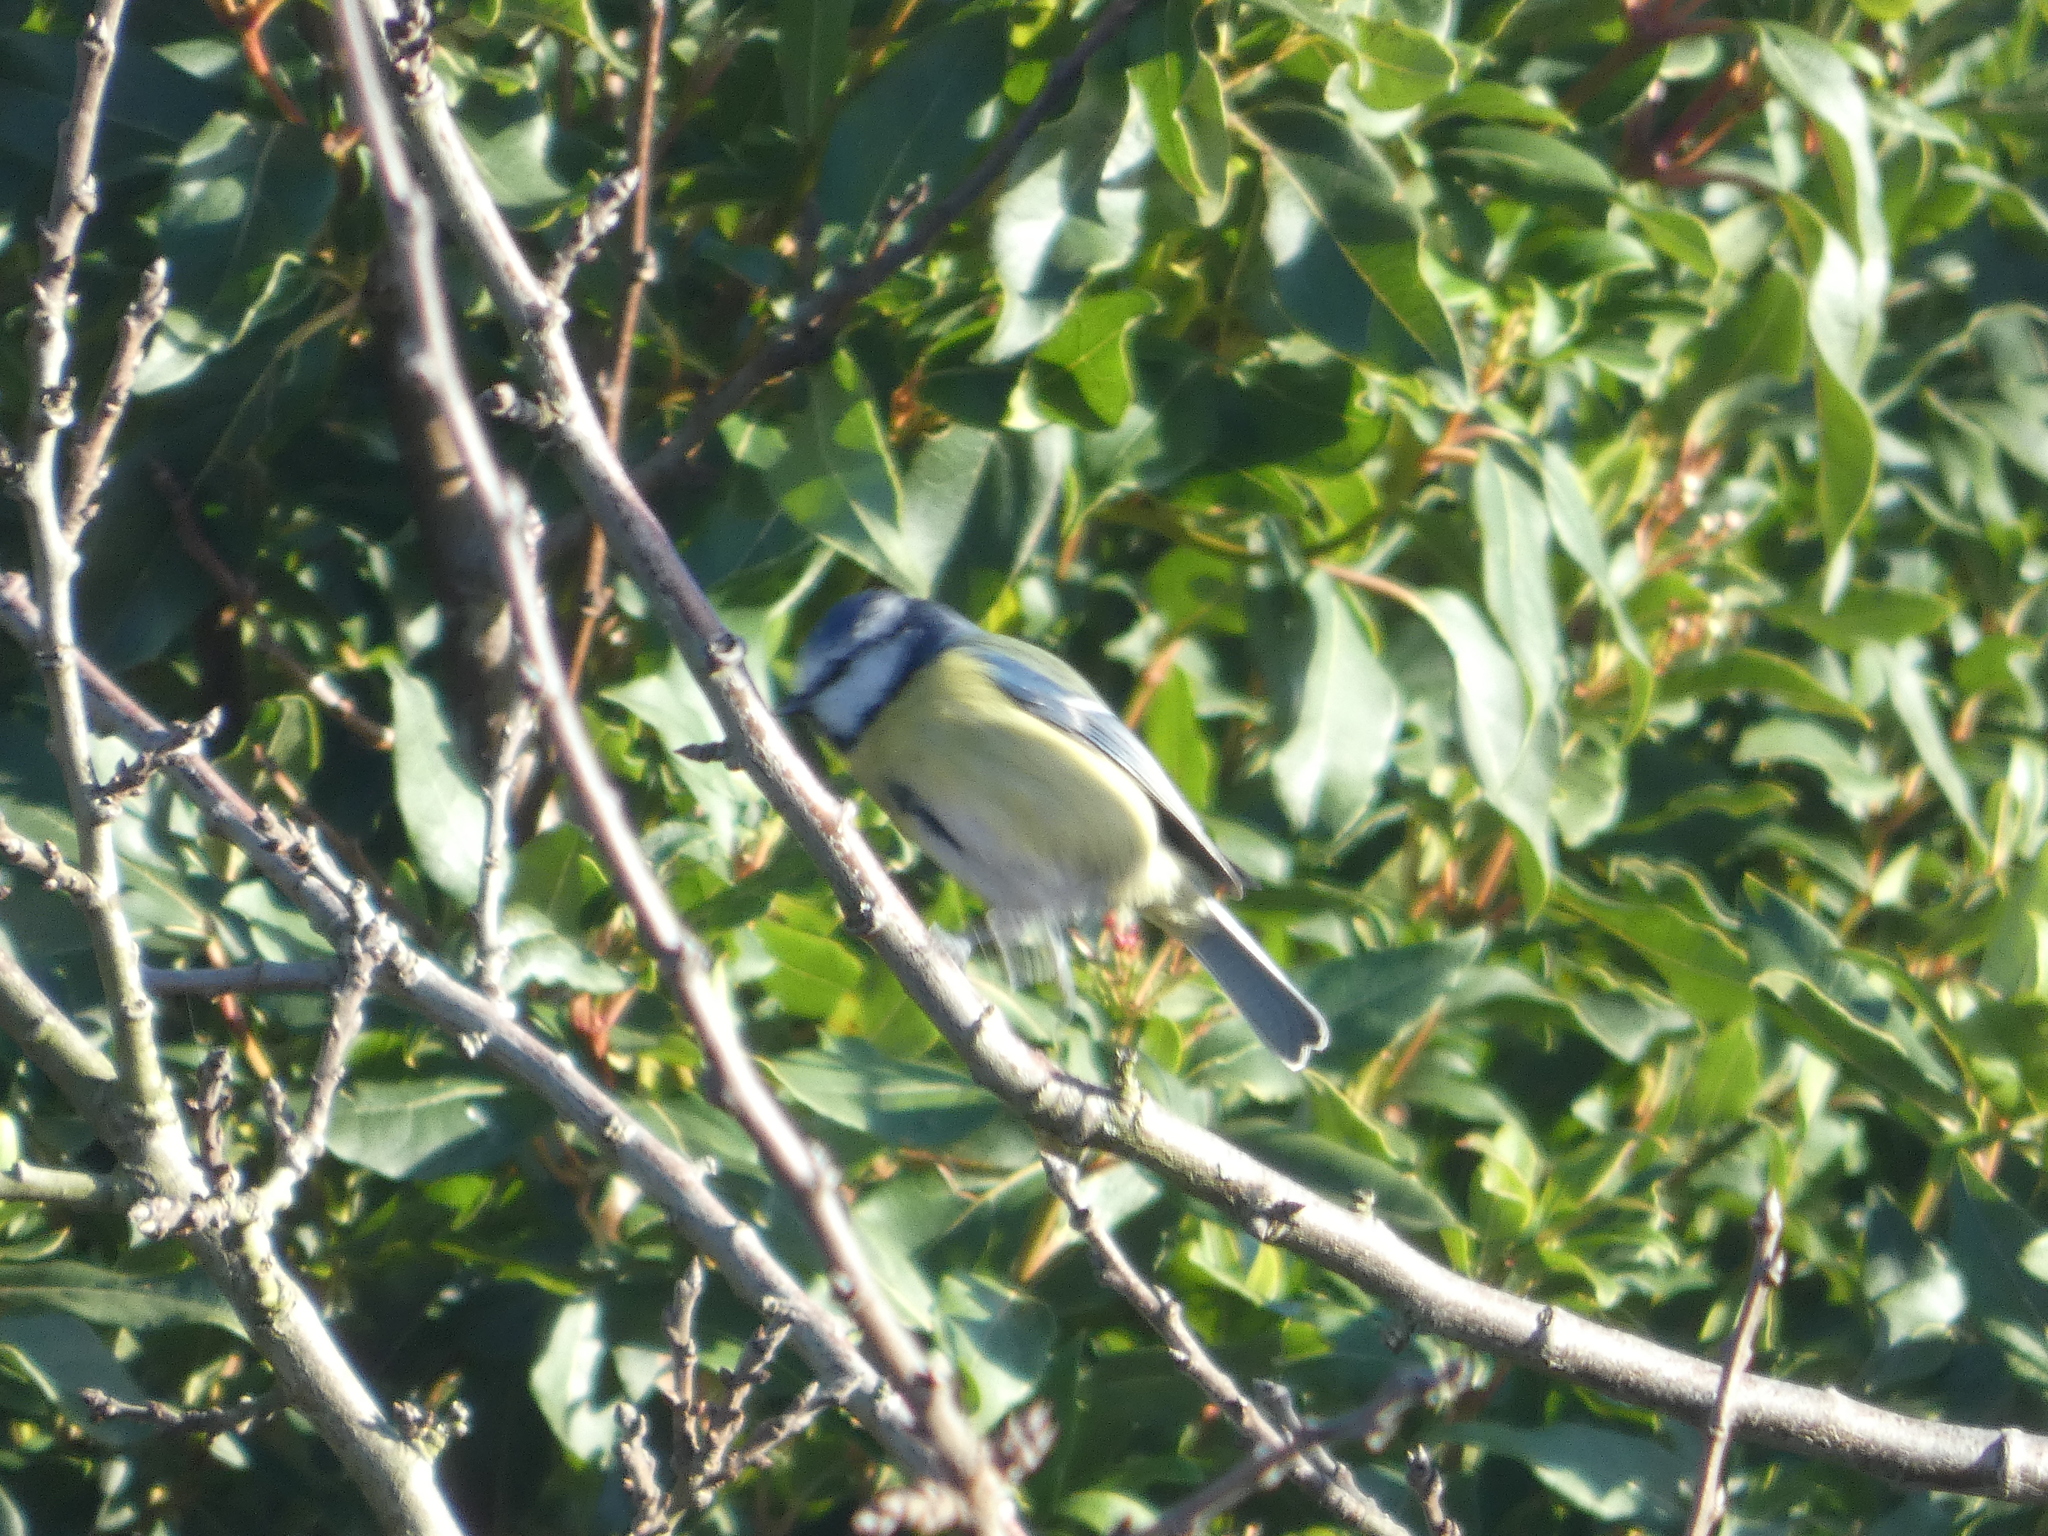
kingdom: Animalia
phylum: Chordata
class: Aves
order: Passeriformes
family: Paridae
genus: Cyanistes
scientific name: Cyanistes caeruleus
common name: Eurasian blue tit
